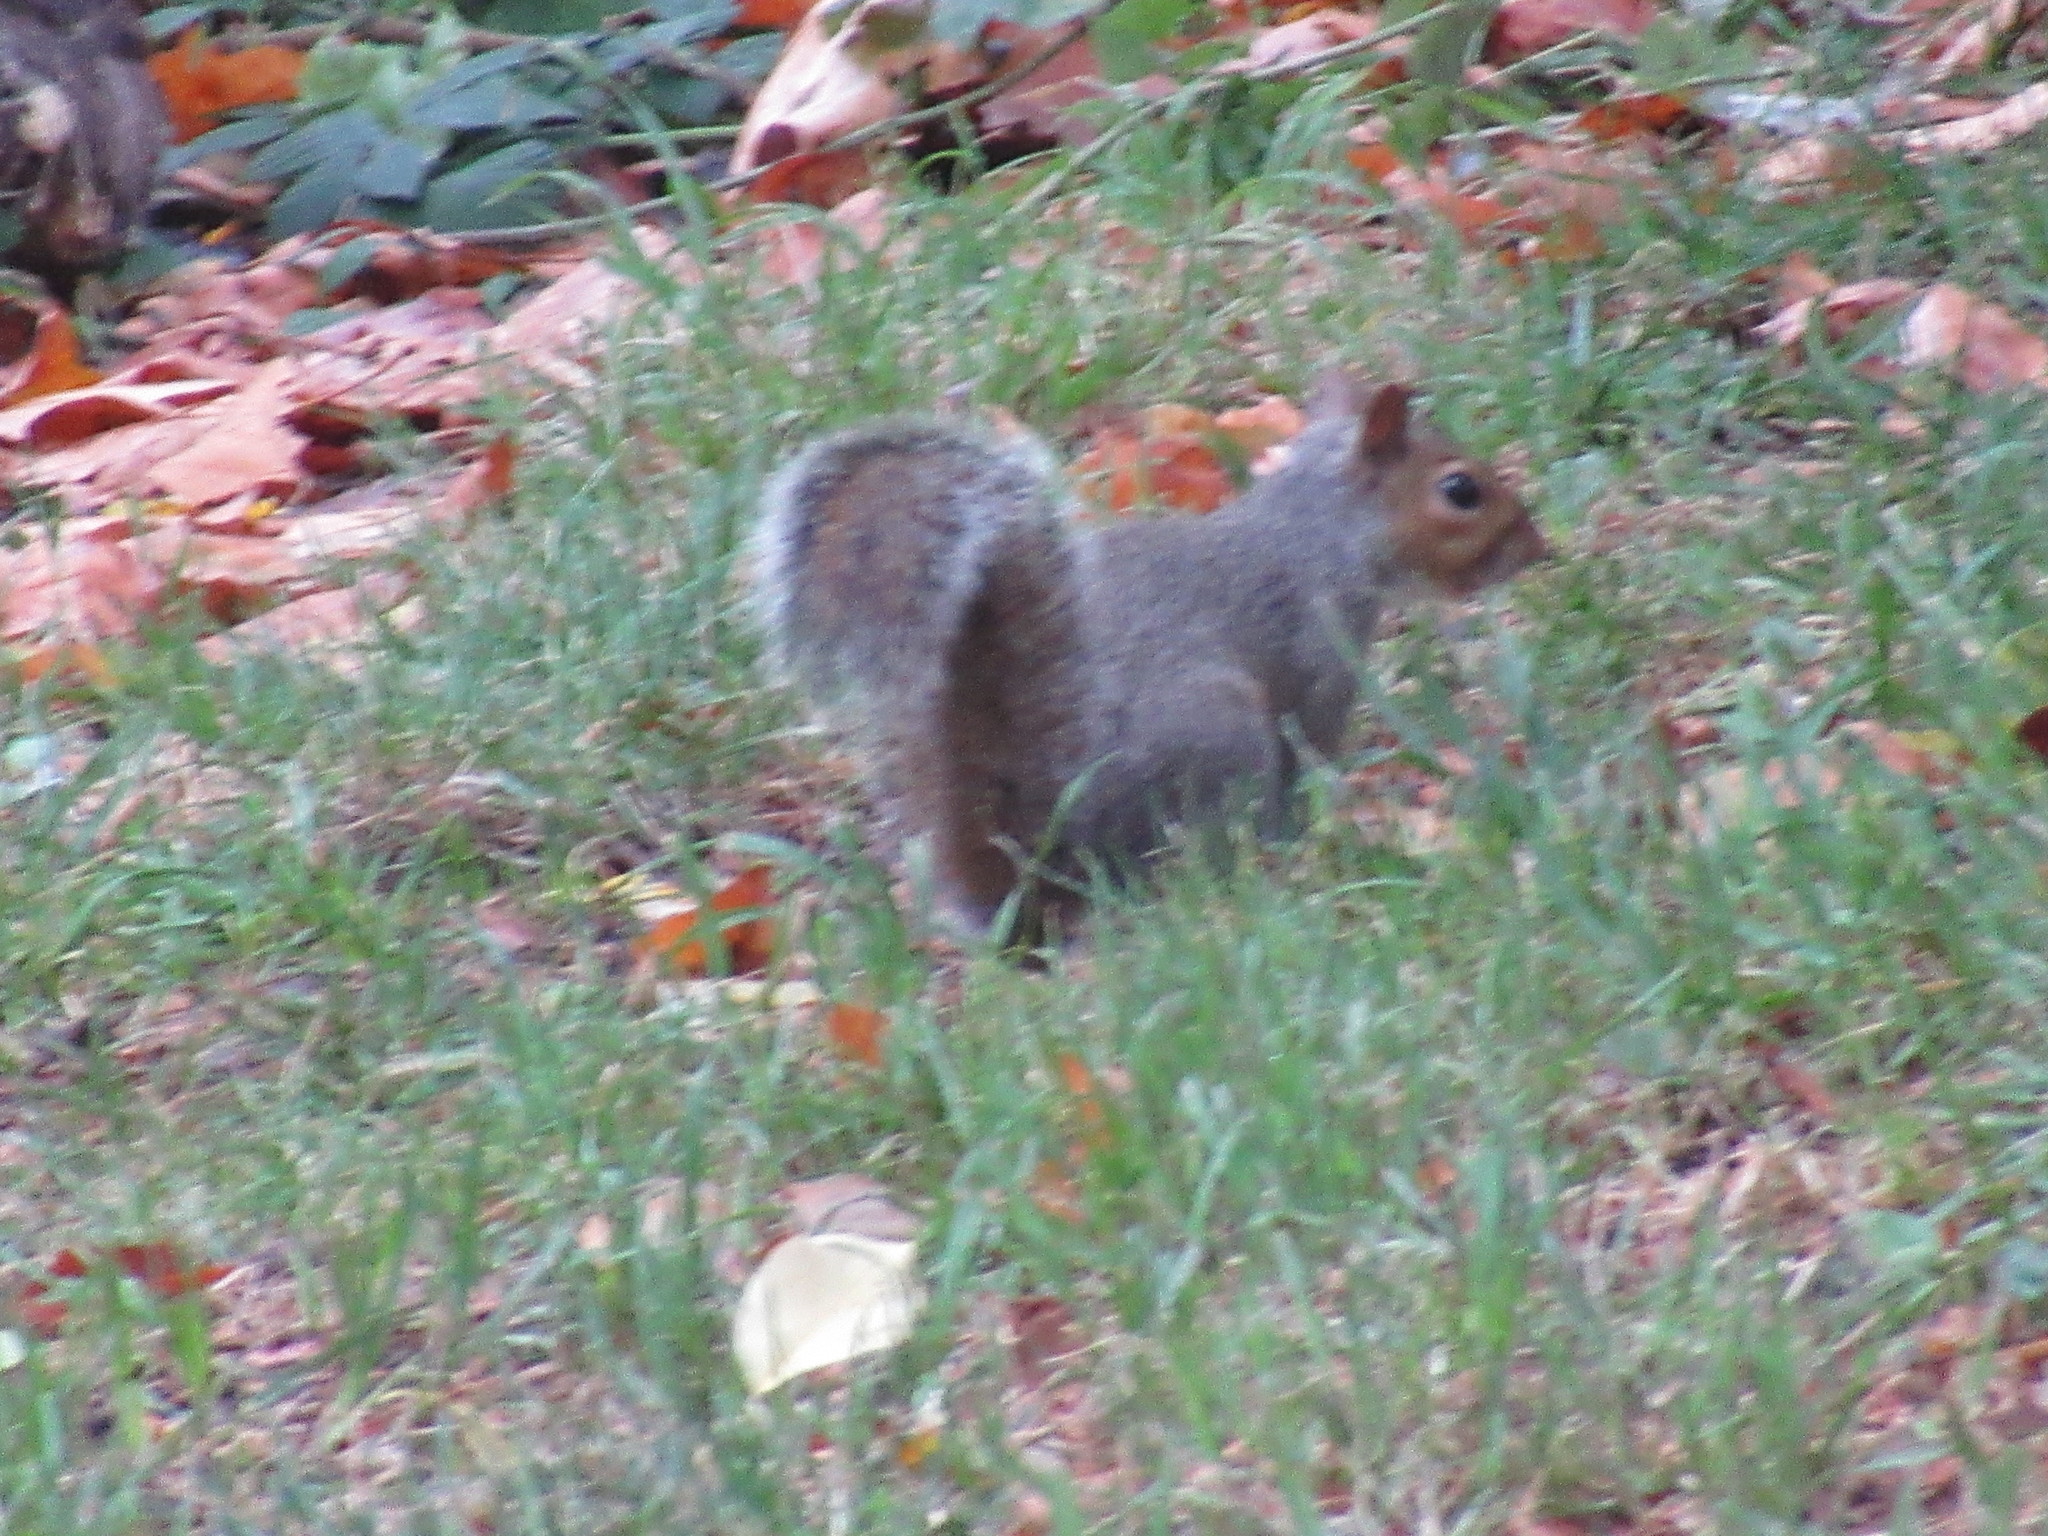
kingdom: Animalia
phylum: Chordata
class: Mammalia
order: Rodentia
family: Sciuridae
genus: Sciurus
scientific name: Sciurus carolinensis
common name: Eastern gray squirrel
